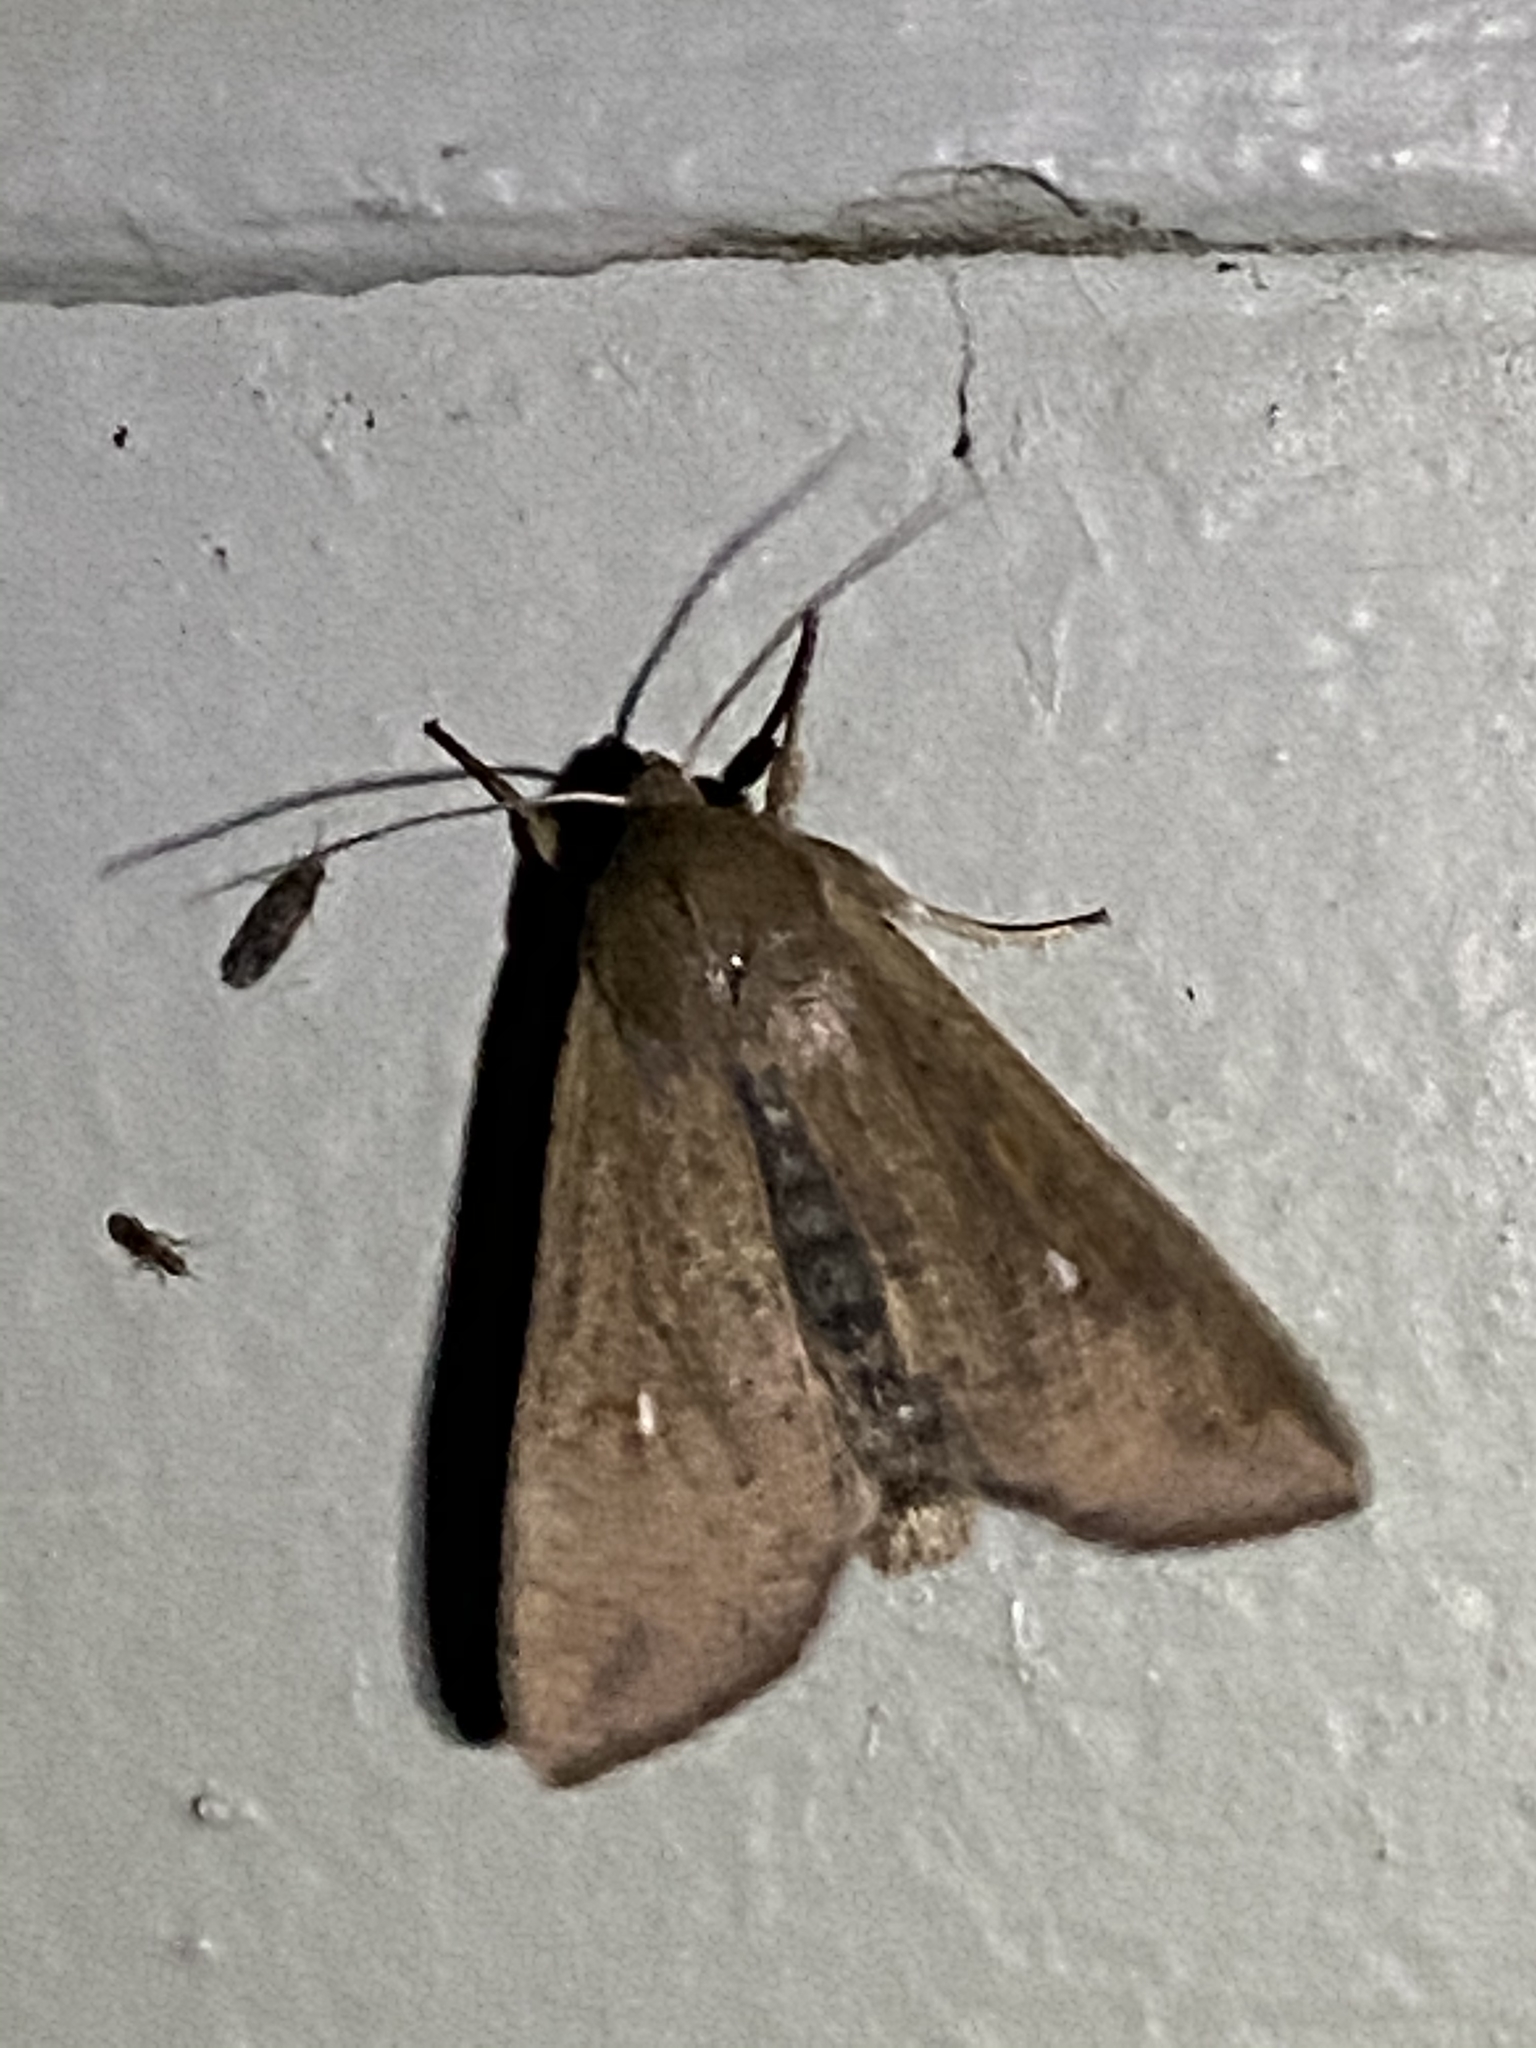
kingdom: Animalia
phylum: Arthropoda
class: Insecta
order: Lepidoptera
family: Noctuidae
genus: Mythimna
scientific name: Mythimna unipuncta
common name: White-speck
